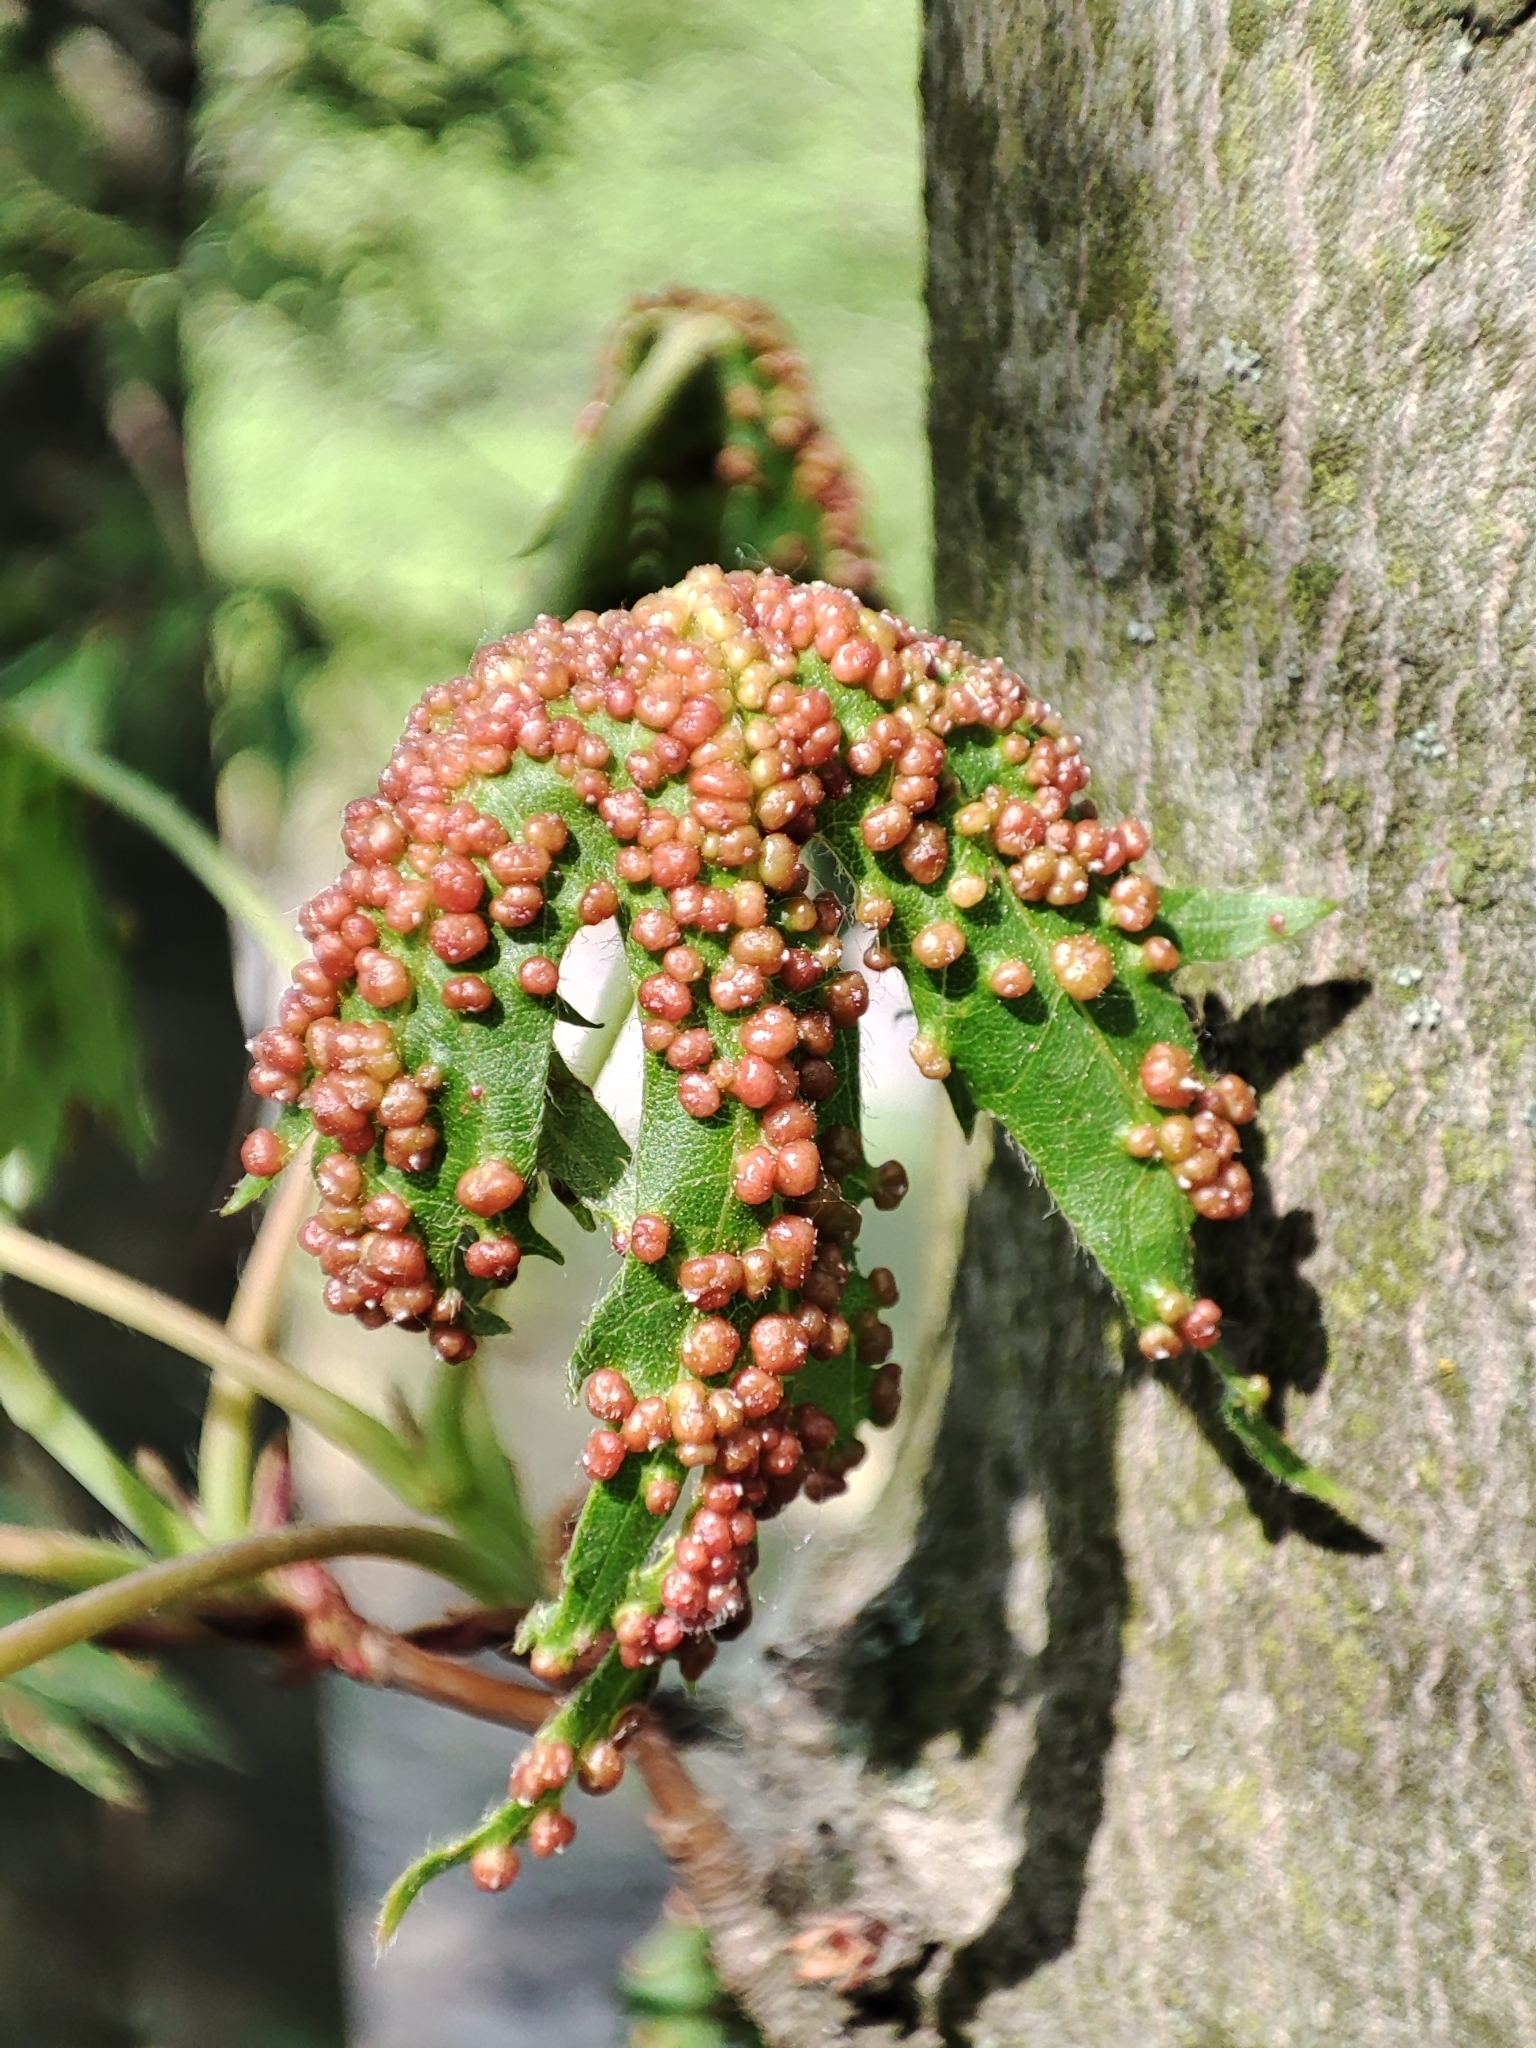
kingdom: Plantae
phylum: Tracheophyta
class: Magnoliopsida
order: Sapindales
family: Sapindaceae
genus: Acer
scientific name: Acer saccharinum
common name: Silver maple
